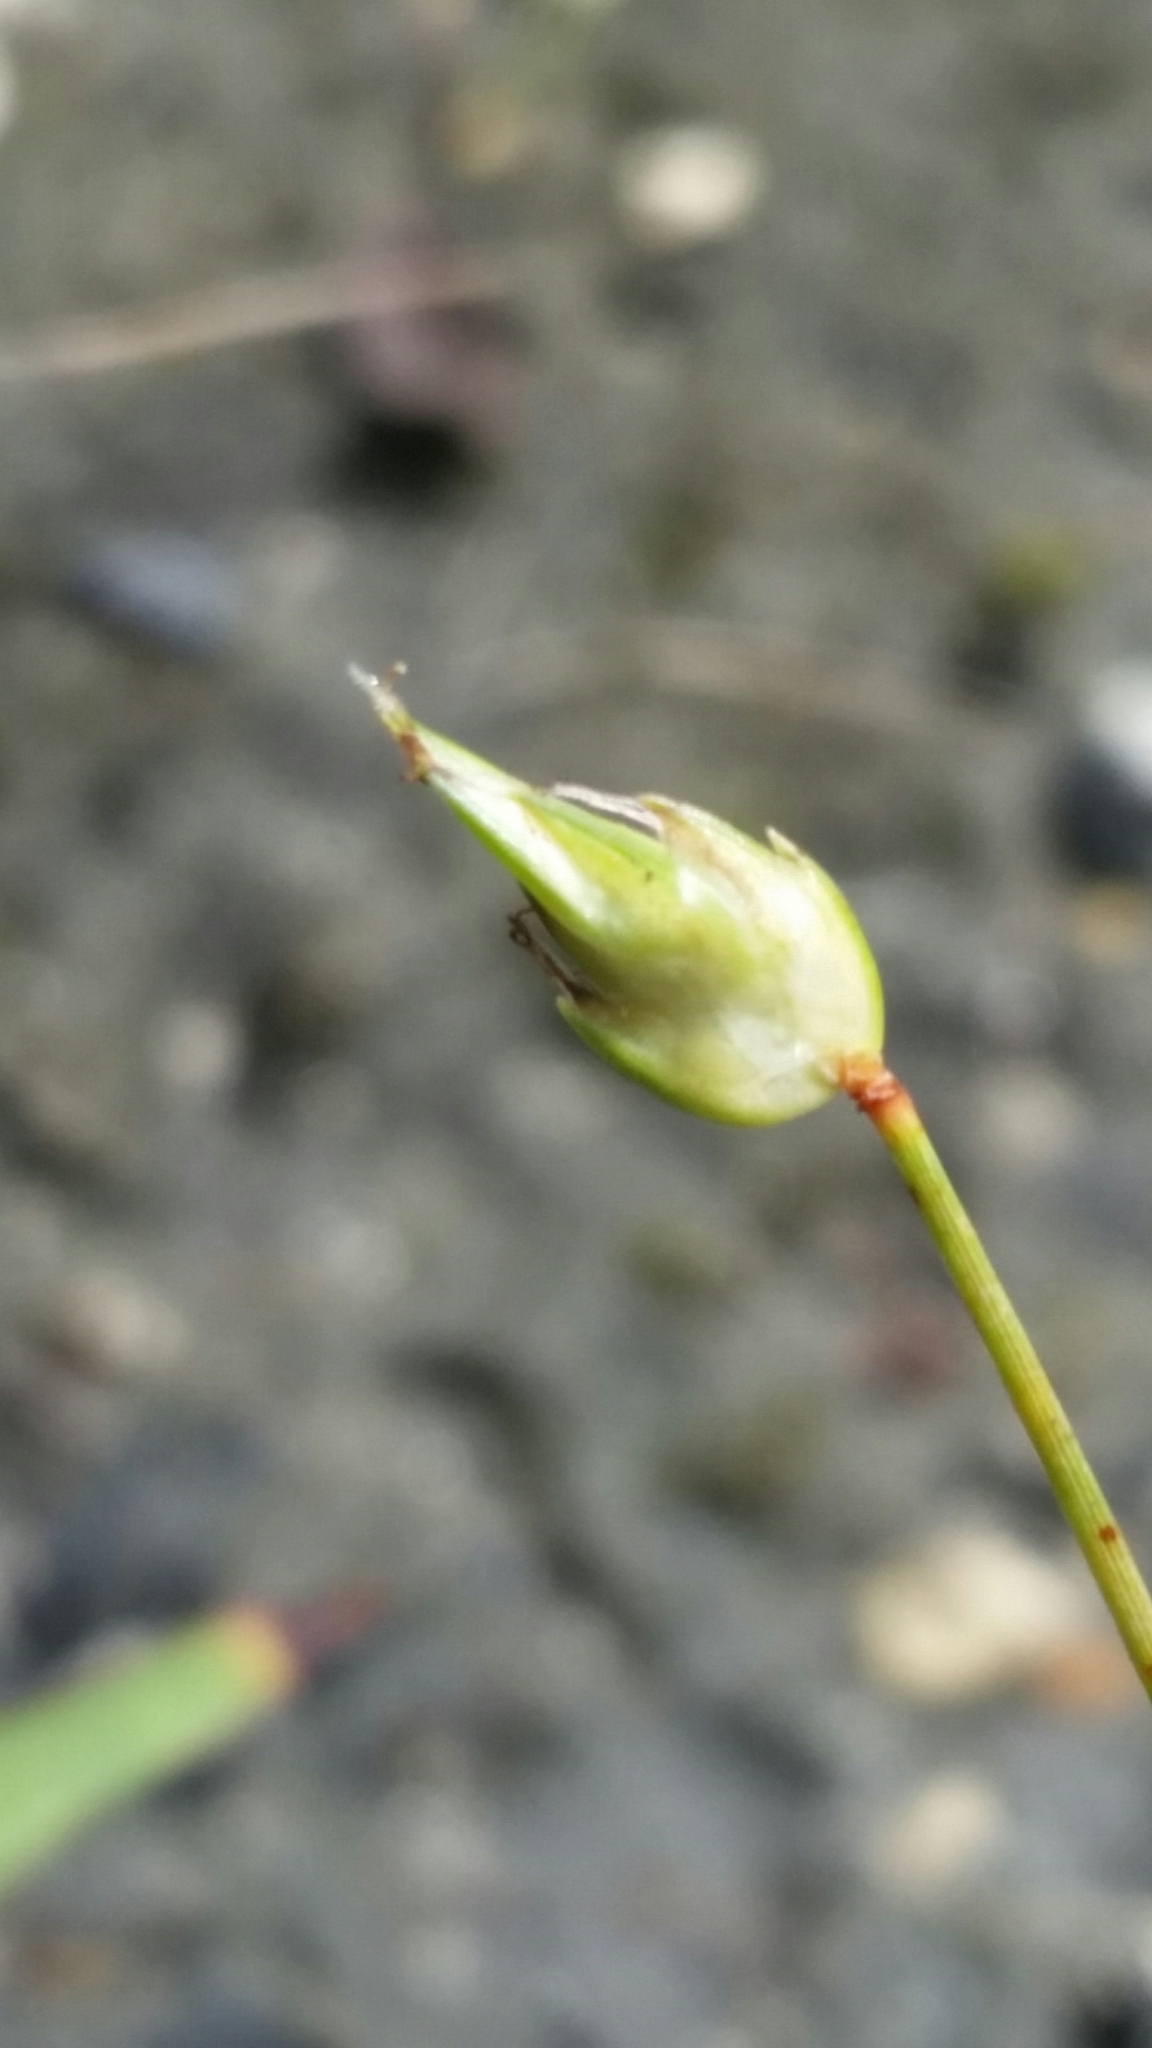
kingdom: Plantae
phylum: Tracheophyta
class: Liliopsida
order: Poales
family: Cyperaceae
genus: Abildgaardia
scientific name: Abildgaardia ovata
